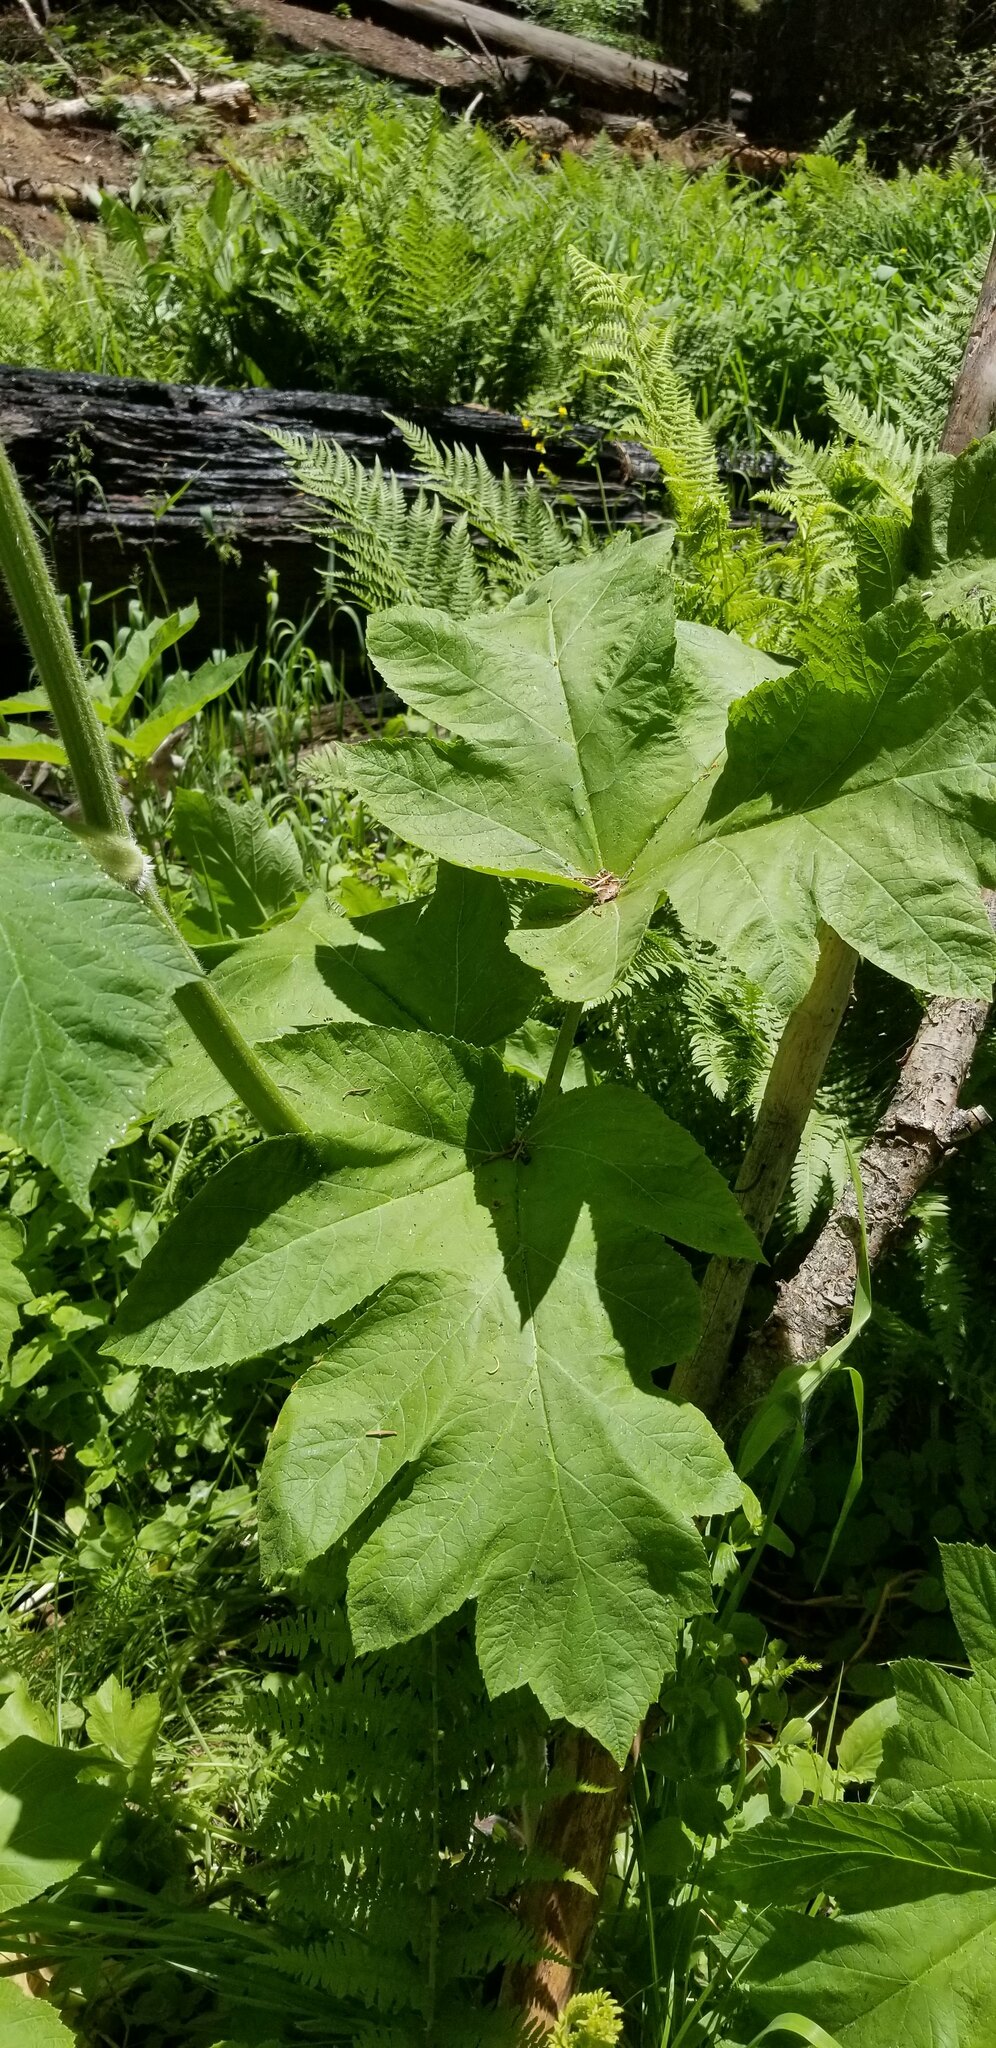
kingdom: Plantae
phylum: Tracheophyta
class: Magnoliopsida
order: Apiales
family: Apiaceae
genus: Heracleum
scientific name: Heracleum maximum
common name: American cow parsnip
